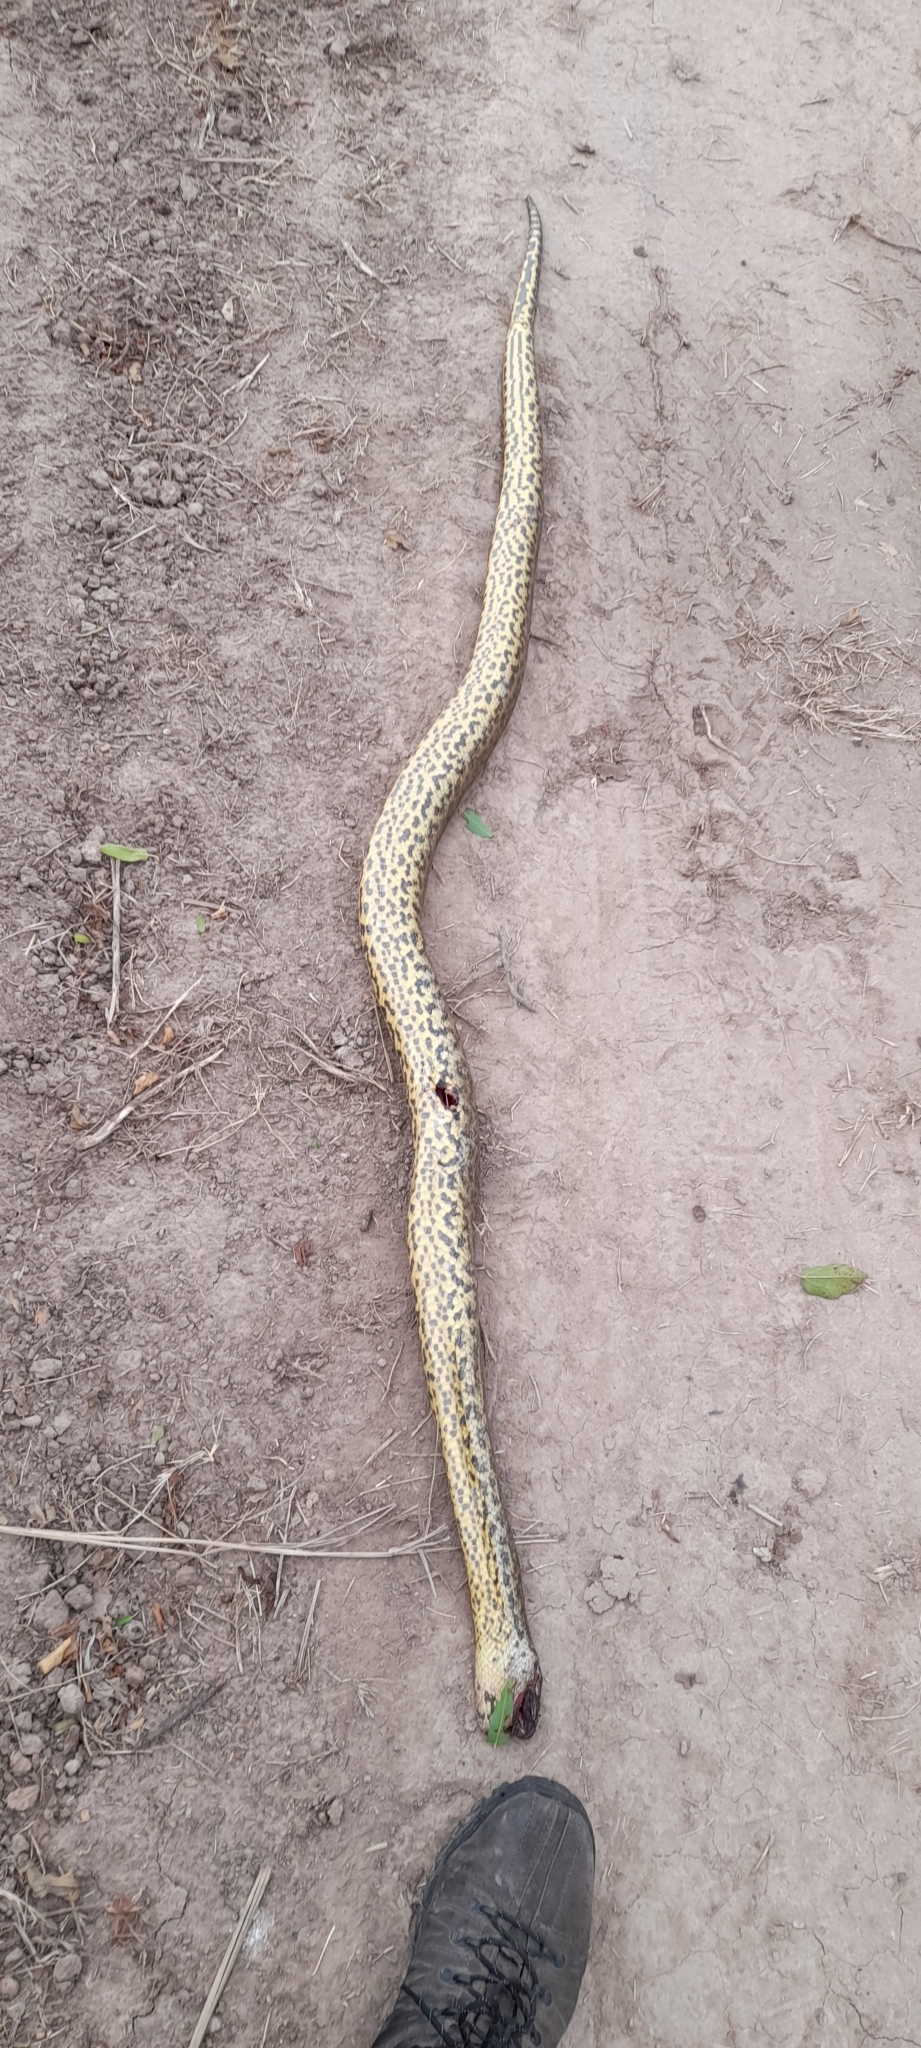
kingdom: Animalia
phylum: Chordata
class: Squamata
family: Boidae
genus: Eunectes
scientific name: Eunectes notaeus
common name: Yellow anaconda
